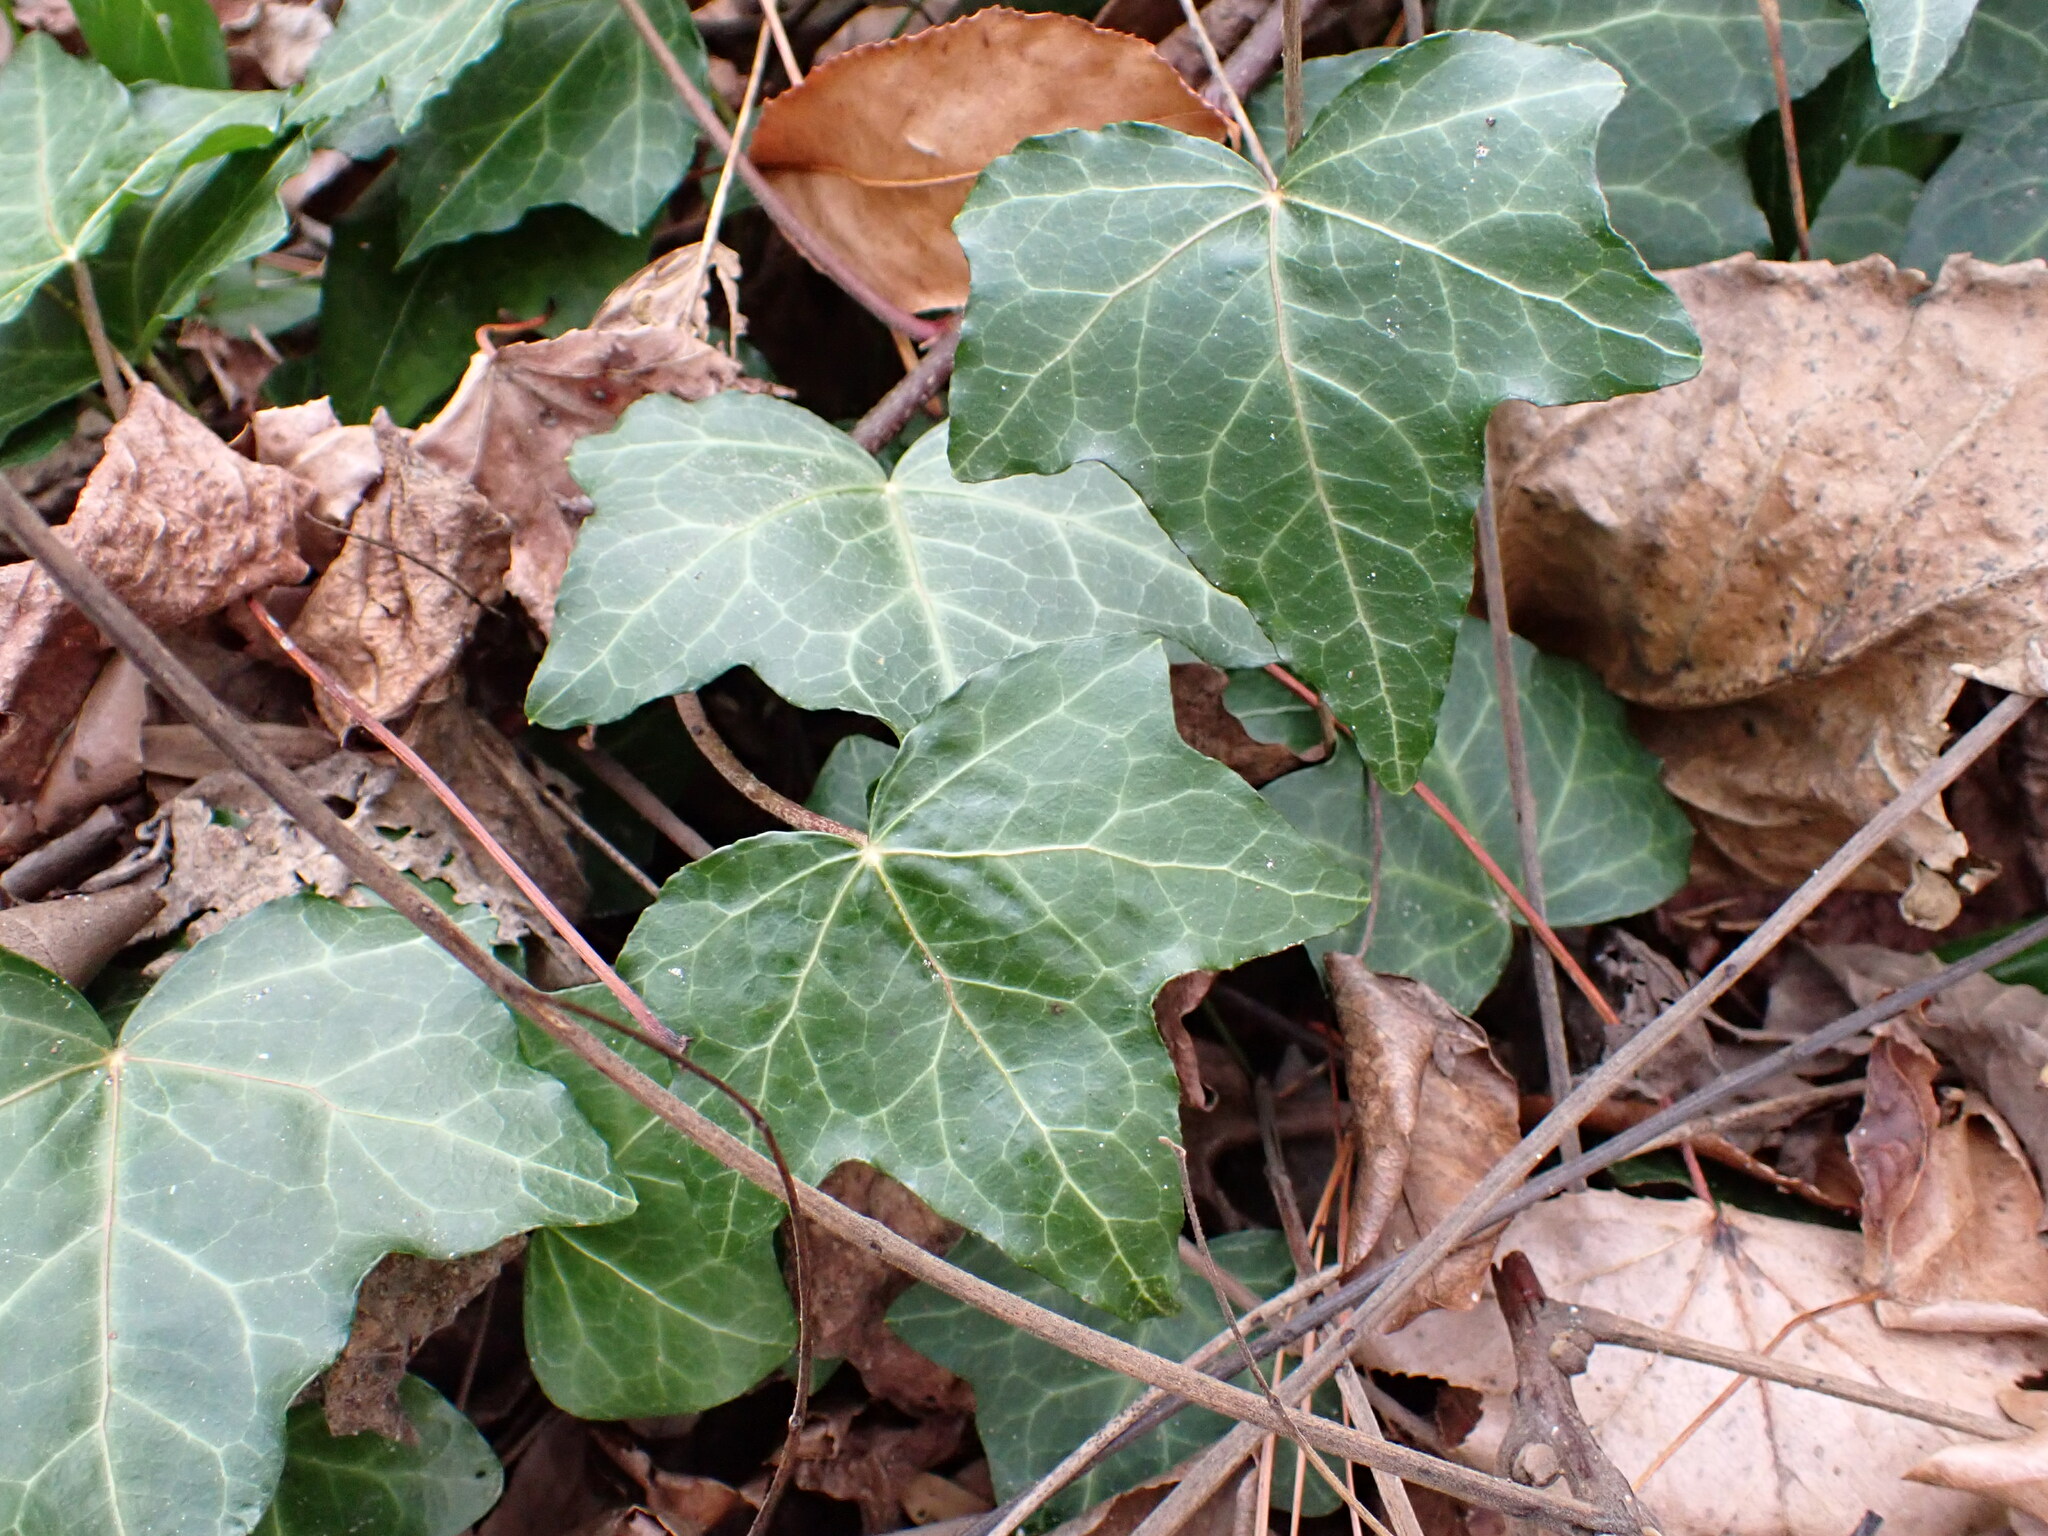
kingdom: Plantae
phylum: Tracheophyta
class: Magnoliopsida
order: Apiales
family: Araliaceae
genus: Hedera
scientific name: Hedera helix
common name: Ivy
